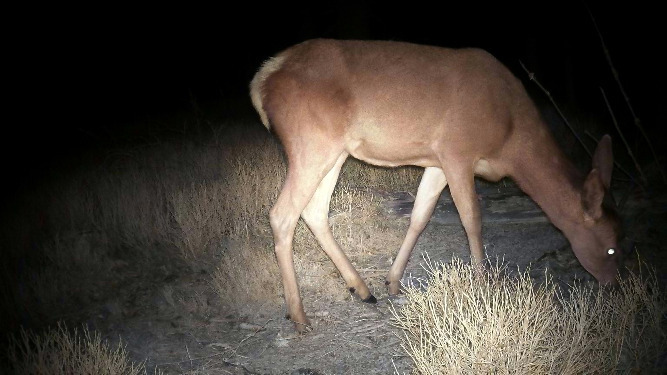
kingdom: Animalia
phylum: Chordata
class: Mammalia
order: Artiodactyla
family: Cervidae
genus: Cervus
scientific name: Cervus elaphus
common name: Red deer
